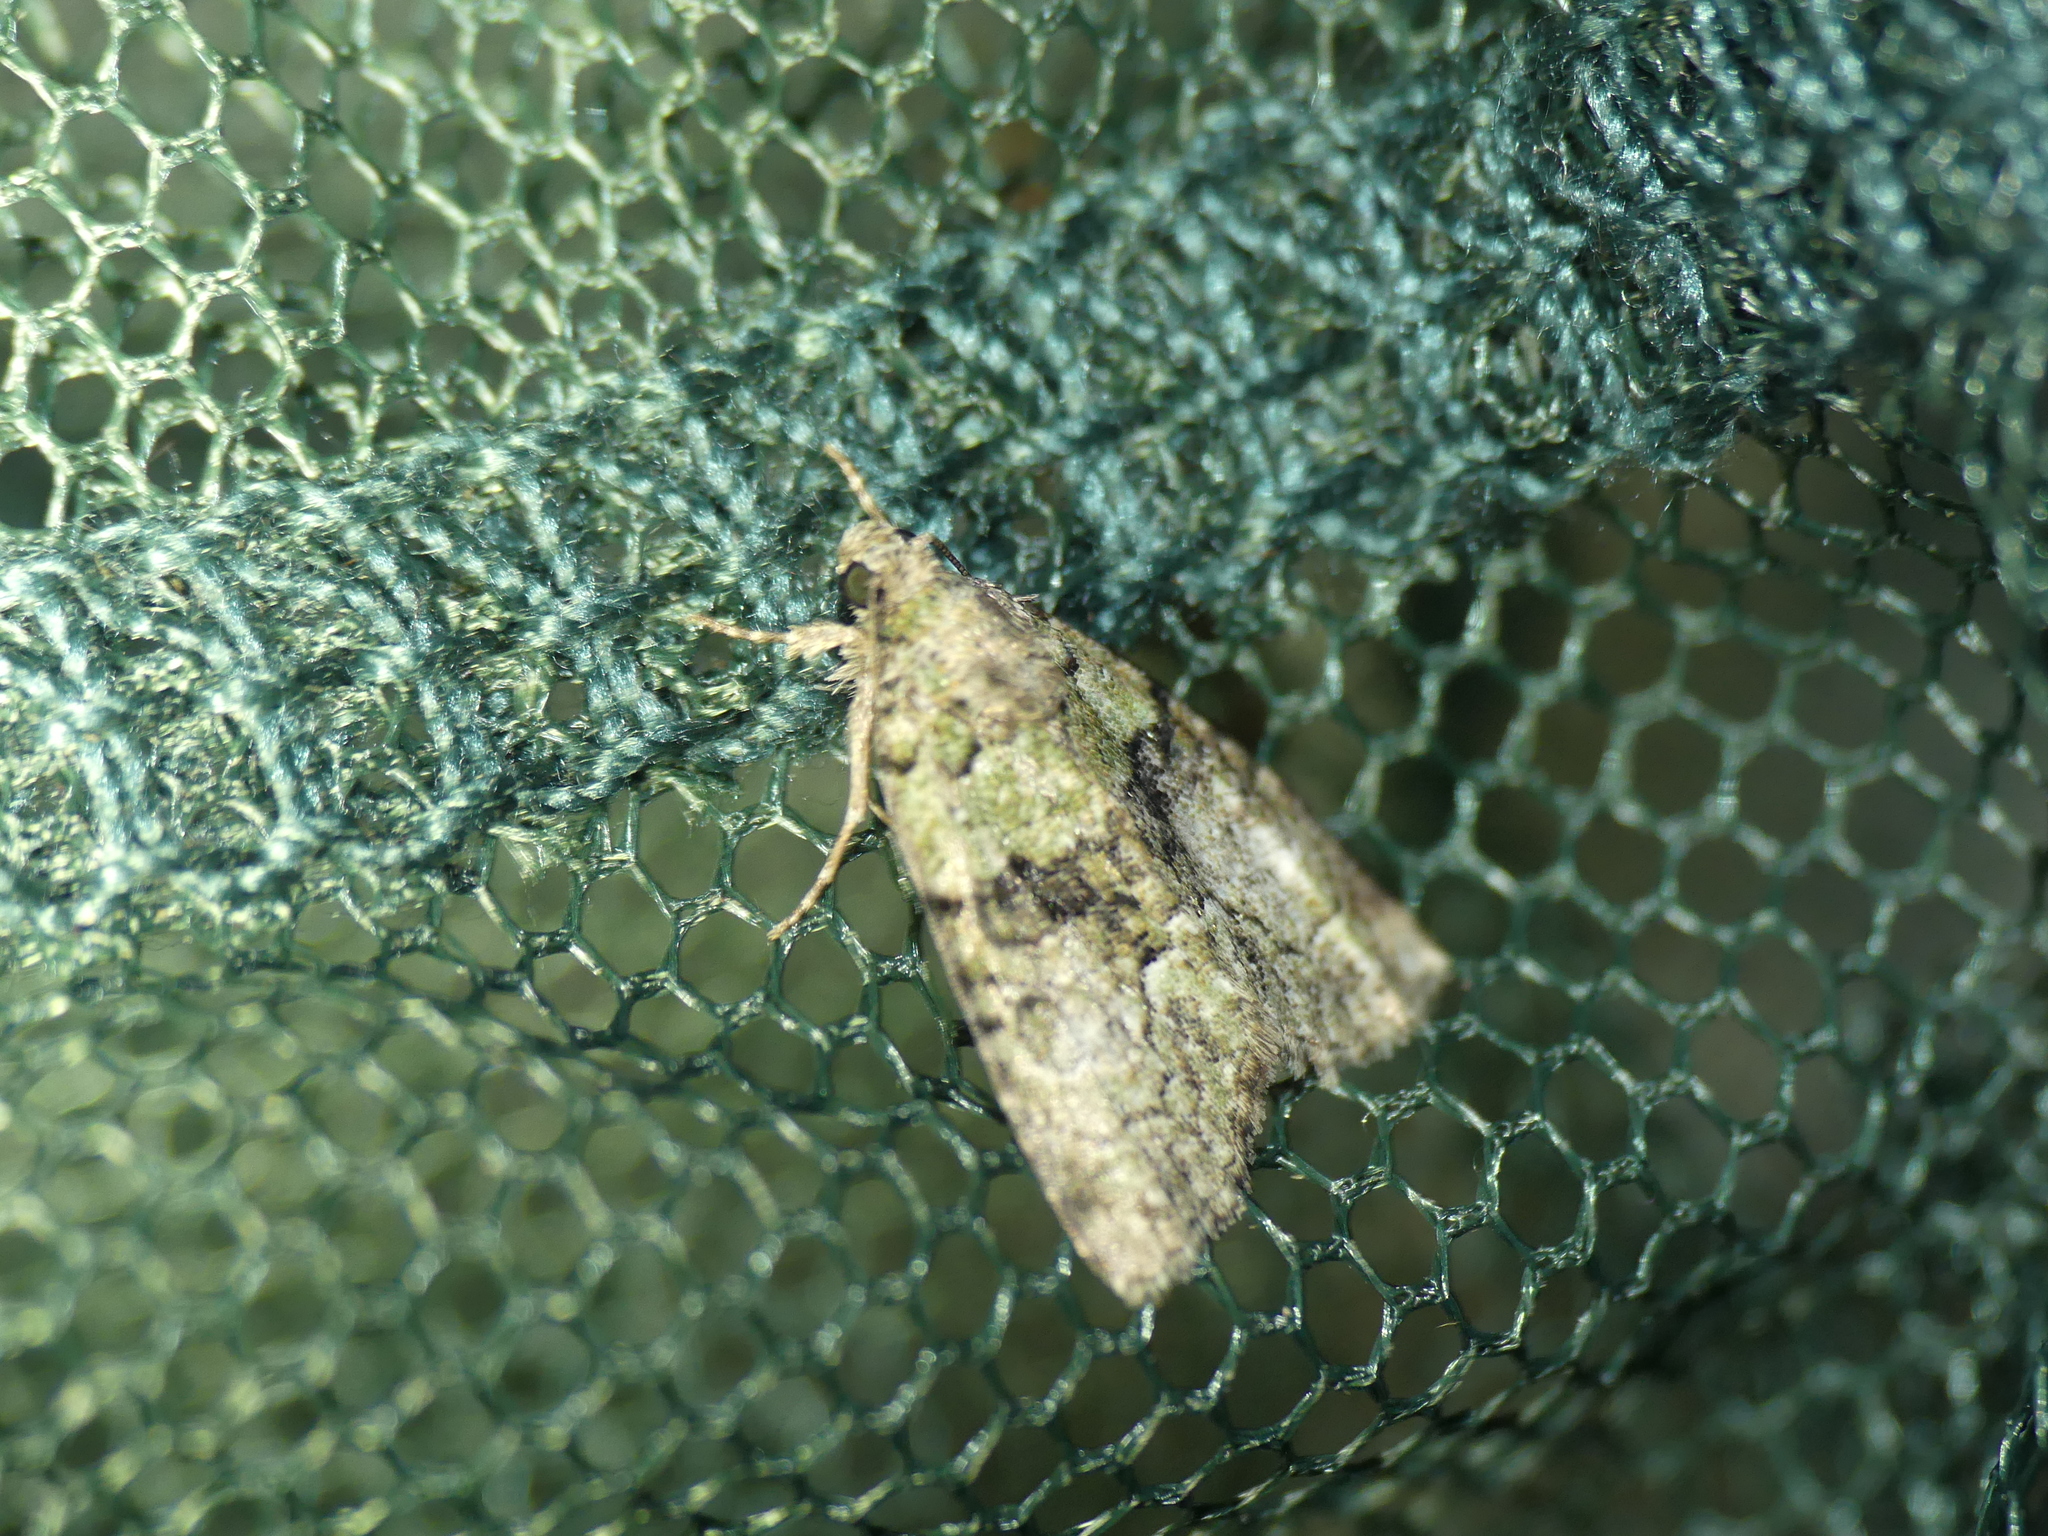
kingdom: Animalia
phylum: Arthropoda
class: Insecta
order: Lepidoptera
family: Noctuidae
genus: Cryphia
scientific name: Cryphia algae
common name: Tree-lichen beauty
